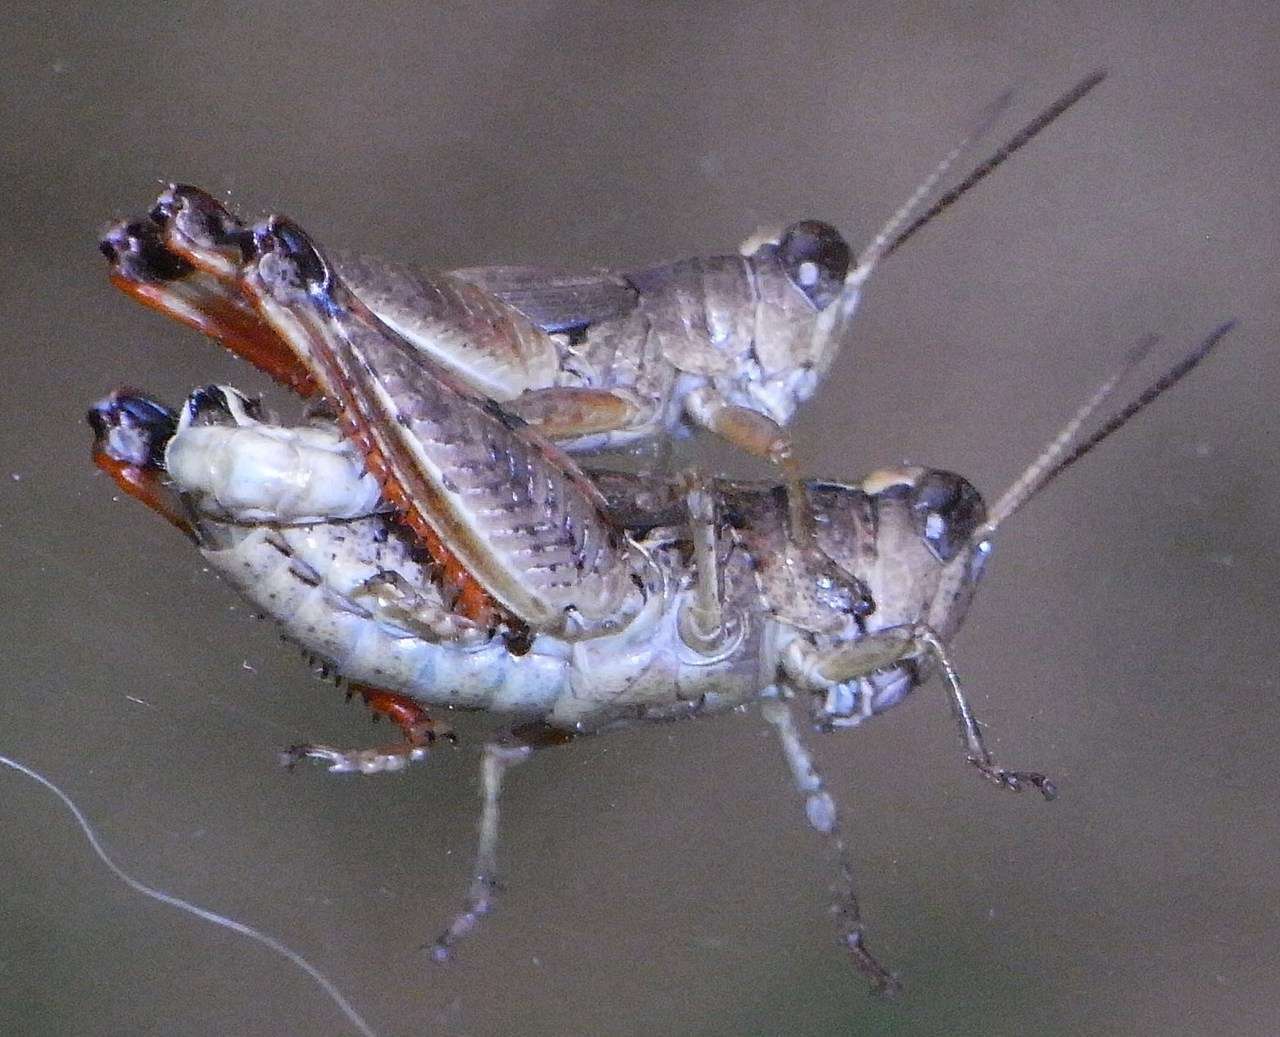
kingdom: Animalia
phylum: Arthropoda
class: Insecta
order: Orthoptera
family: Acrididae
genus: Phaulacridium
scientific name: Phaulacridium vittatum
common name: Wingless grasshopper
